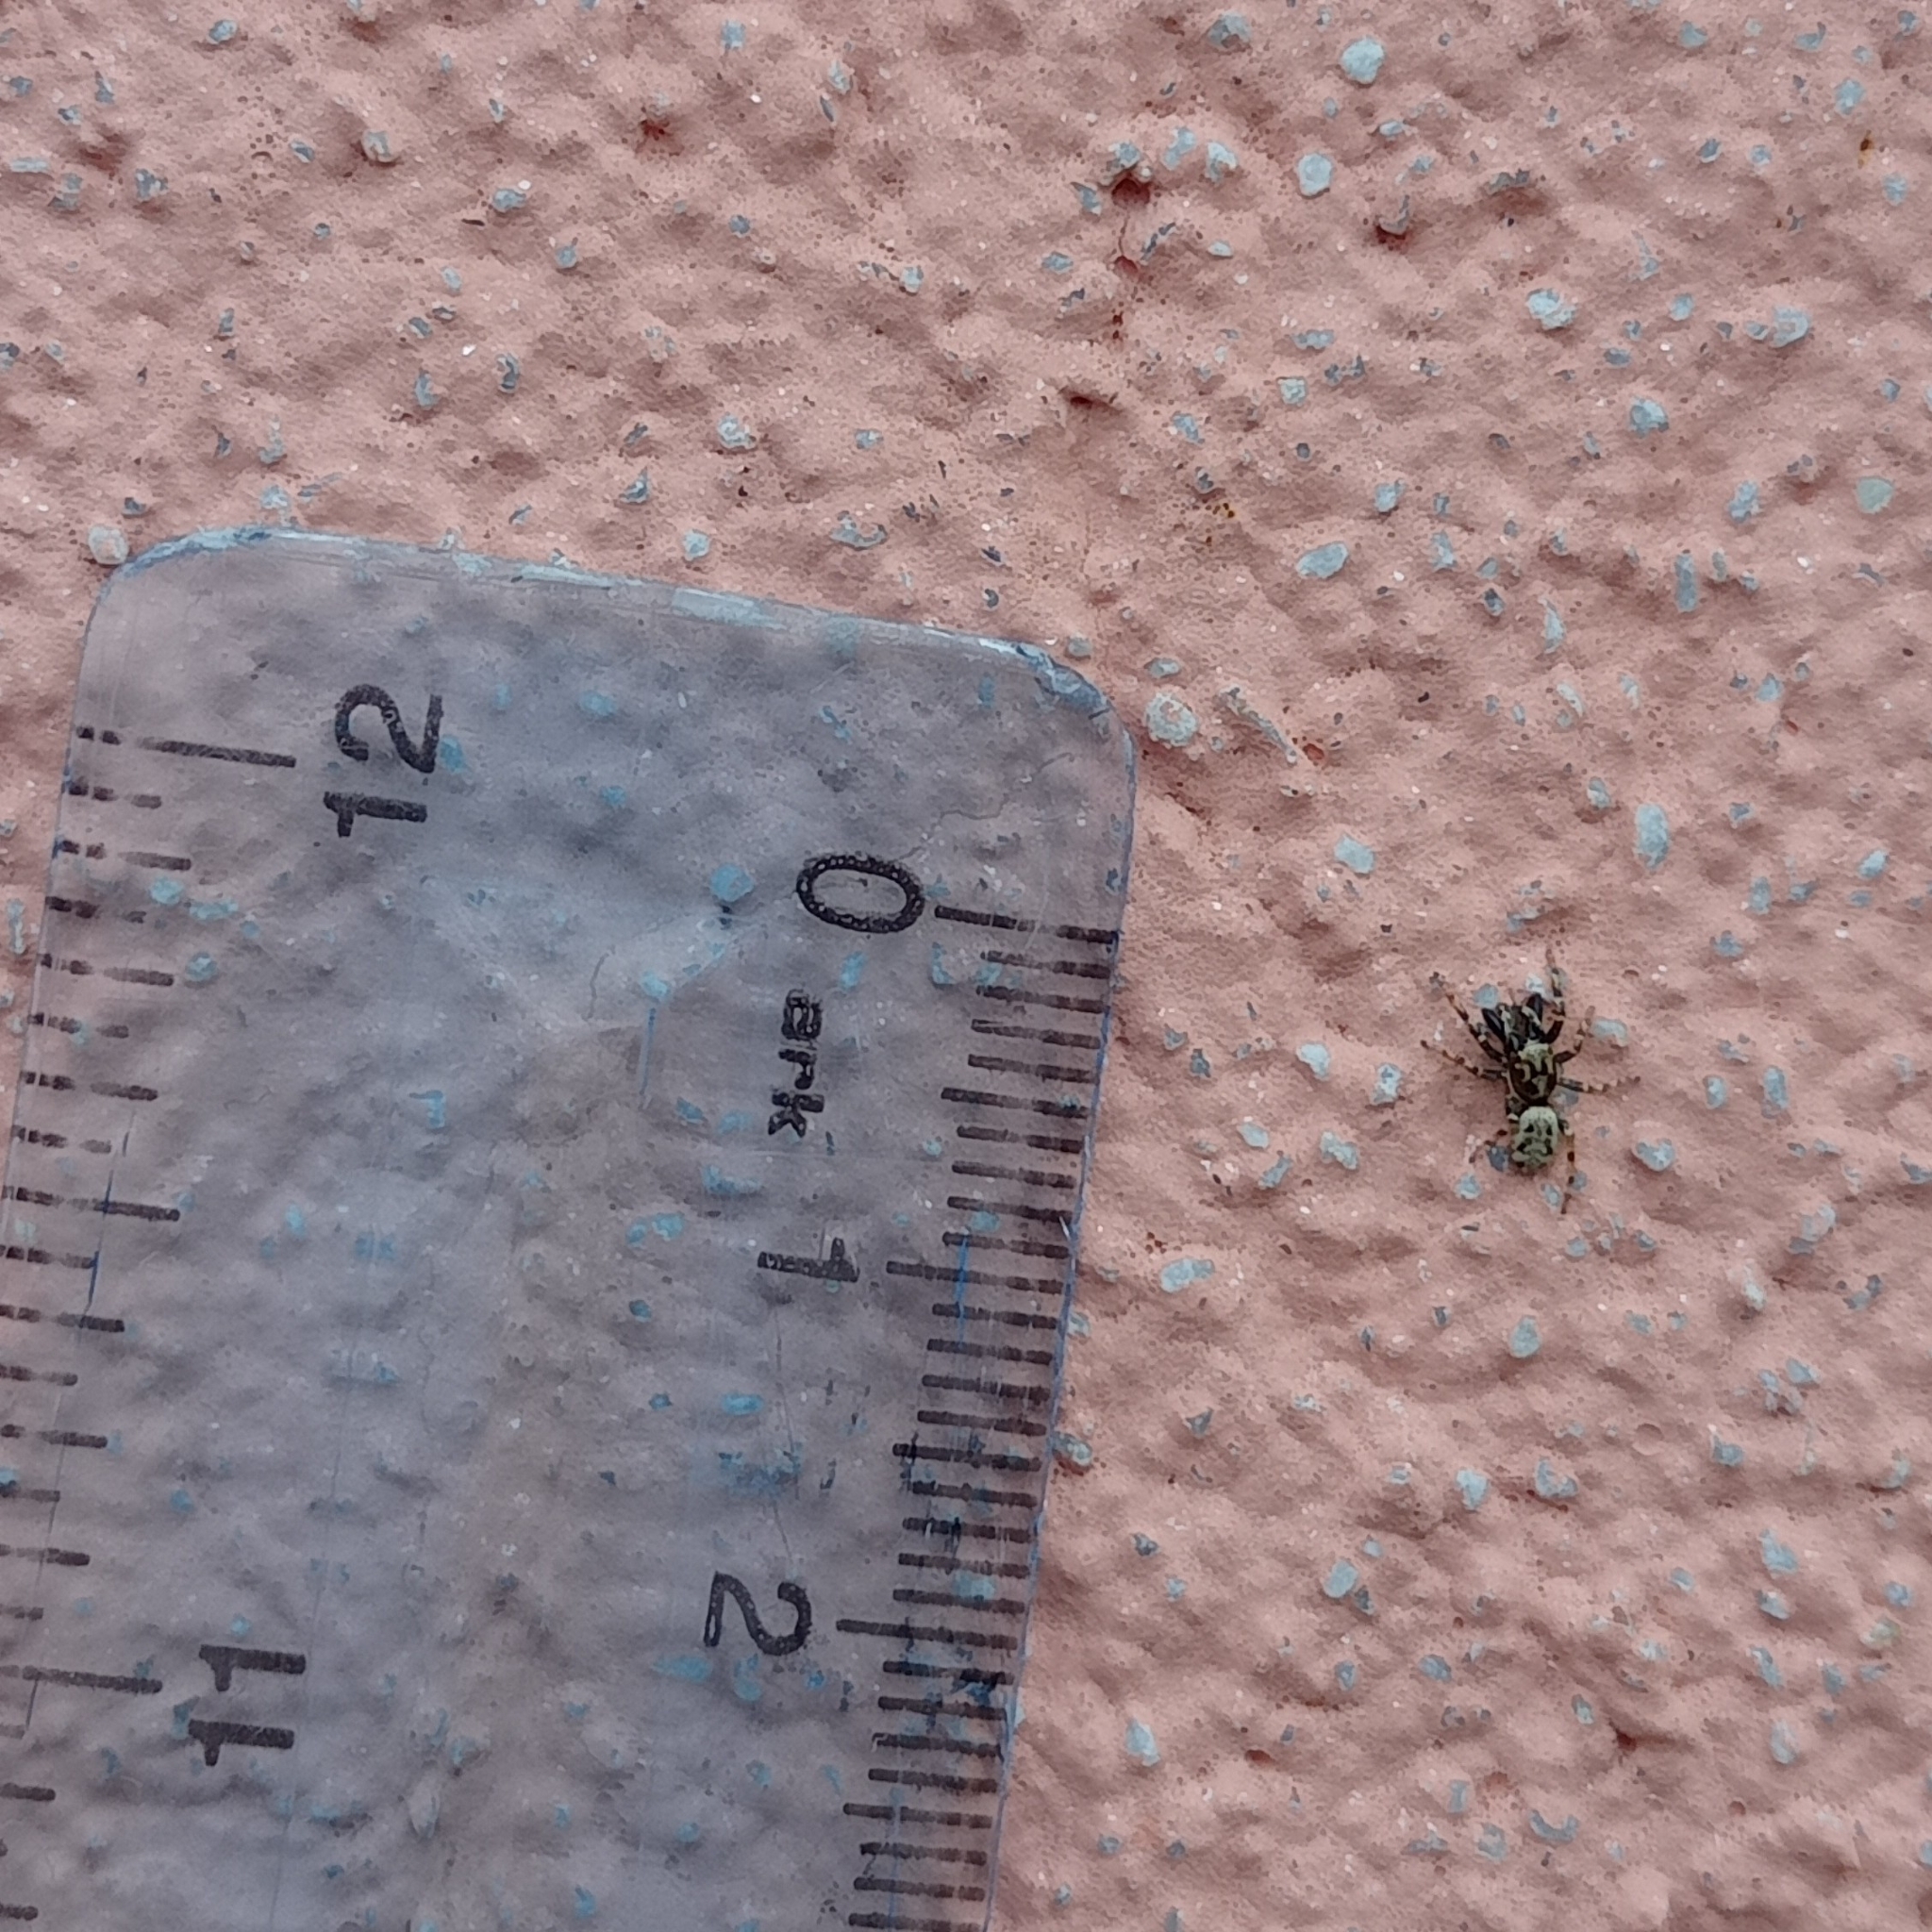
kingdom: Animalia
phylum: Arthropoda
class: Arachnida
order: Araneae
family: Salticidae
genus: Salticus
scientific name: Salticus mutabilis
